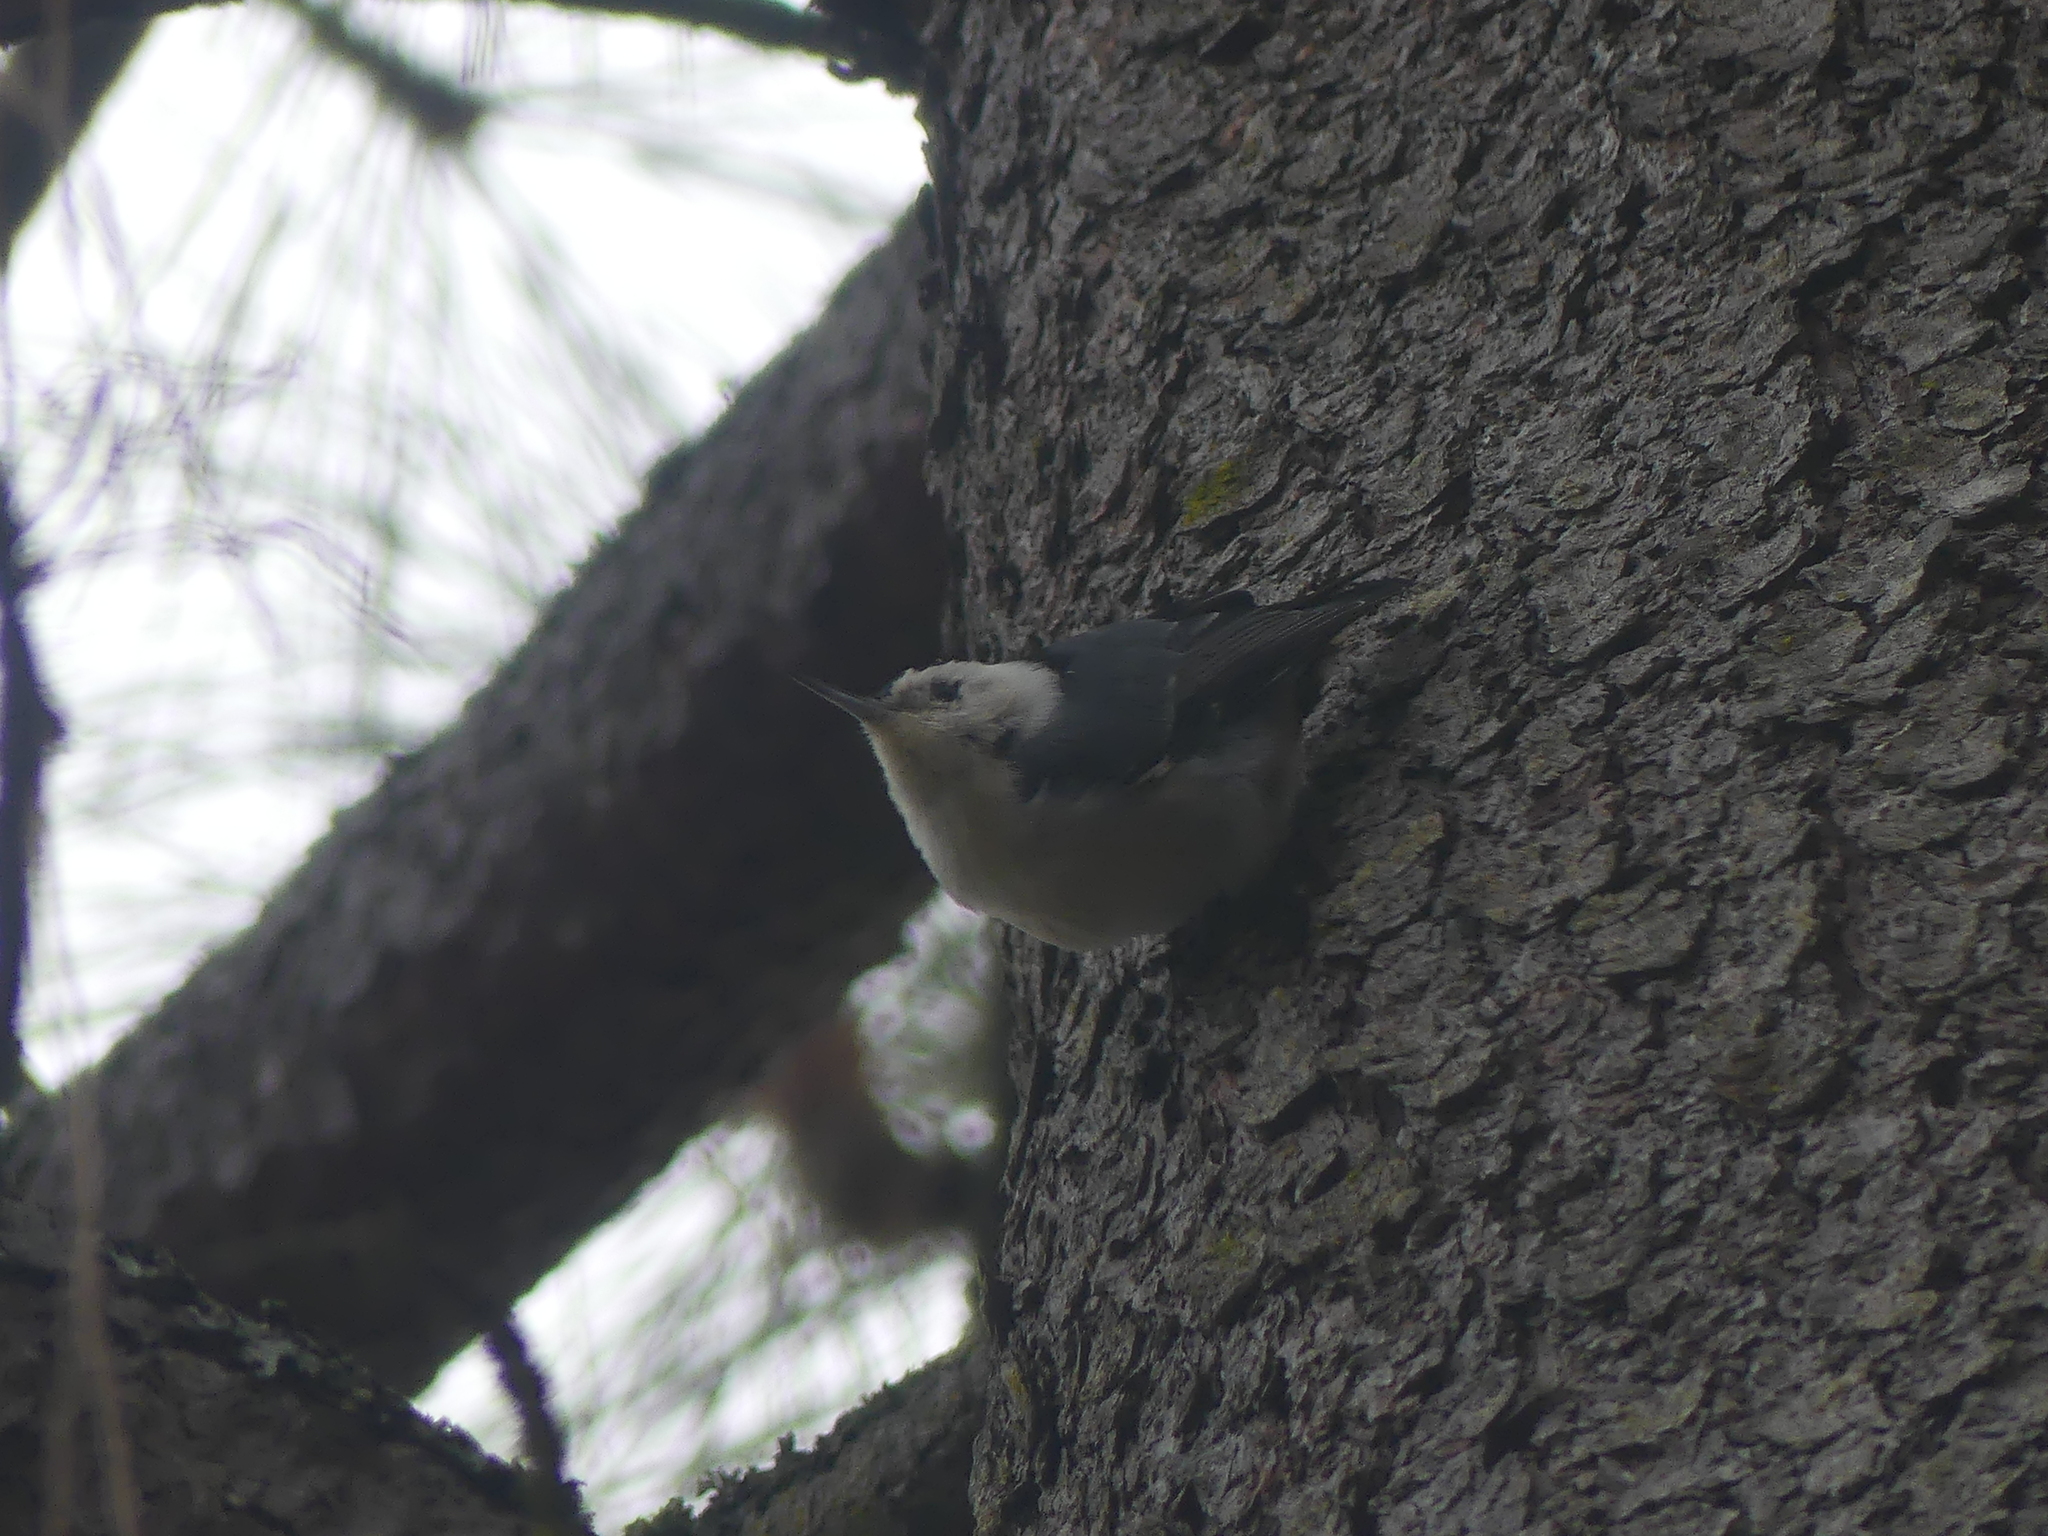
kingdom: Animalia
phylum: Chordata
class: Aves
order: Passeriformes
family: Sittidae
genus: Sitta
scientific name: Sitta carolinensis
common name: White-breasted nuthatch
